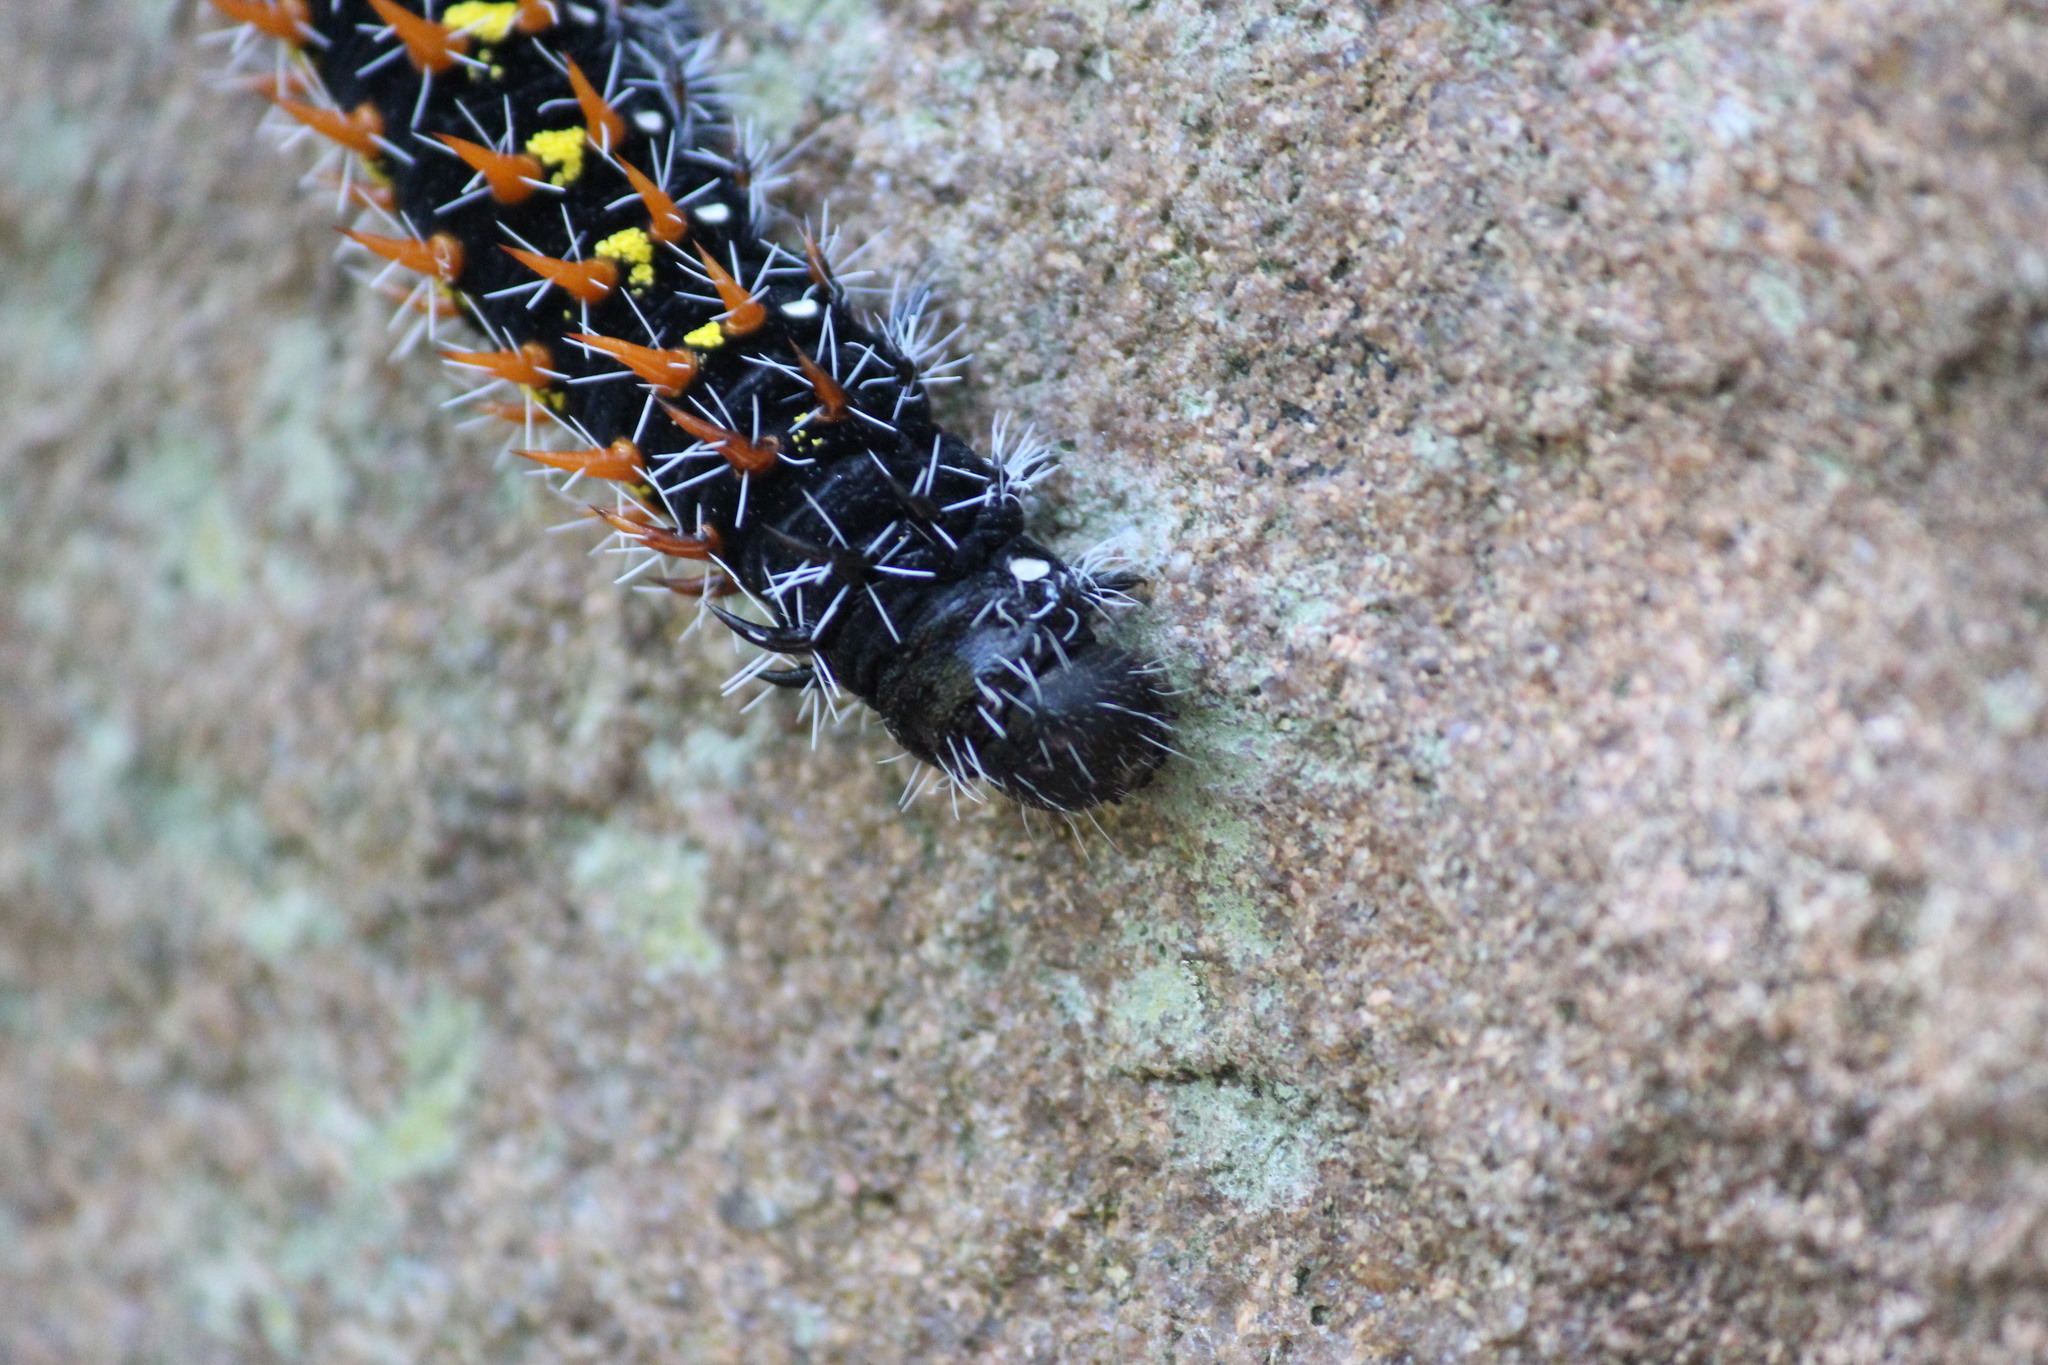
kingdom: Animalia
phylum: Arthropoda
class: Insecta
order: Lepidoptera
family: Saturniidae
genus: Nudaurelia
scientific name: Nudaurelia wahlbergi
